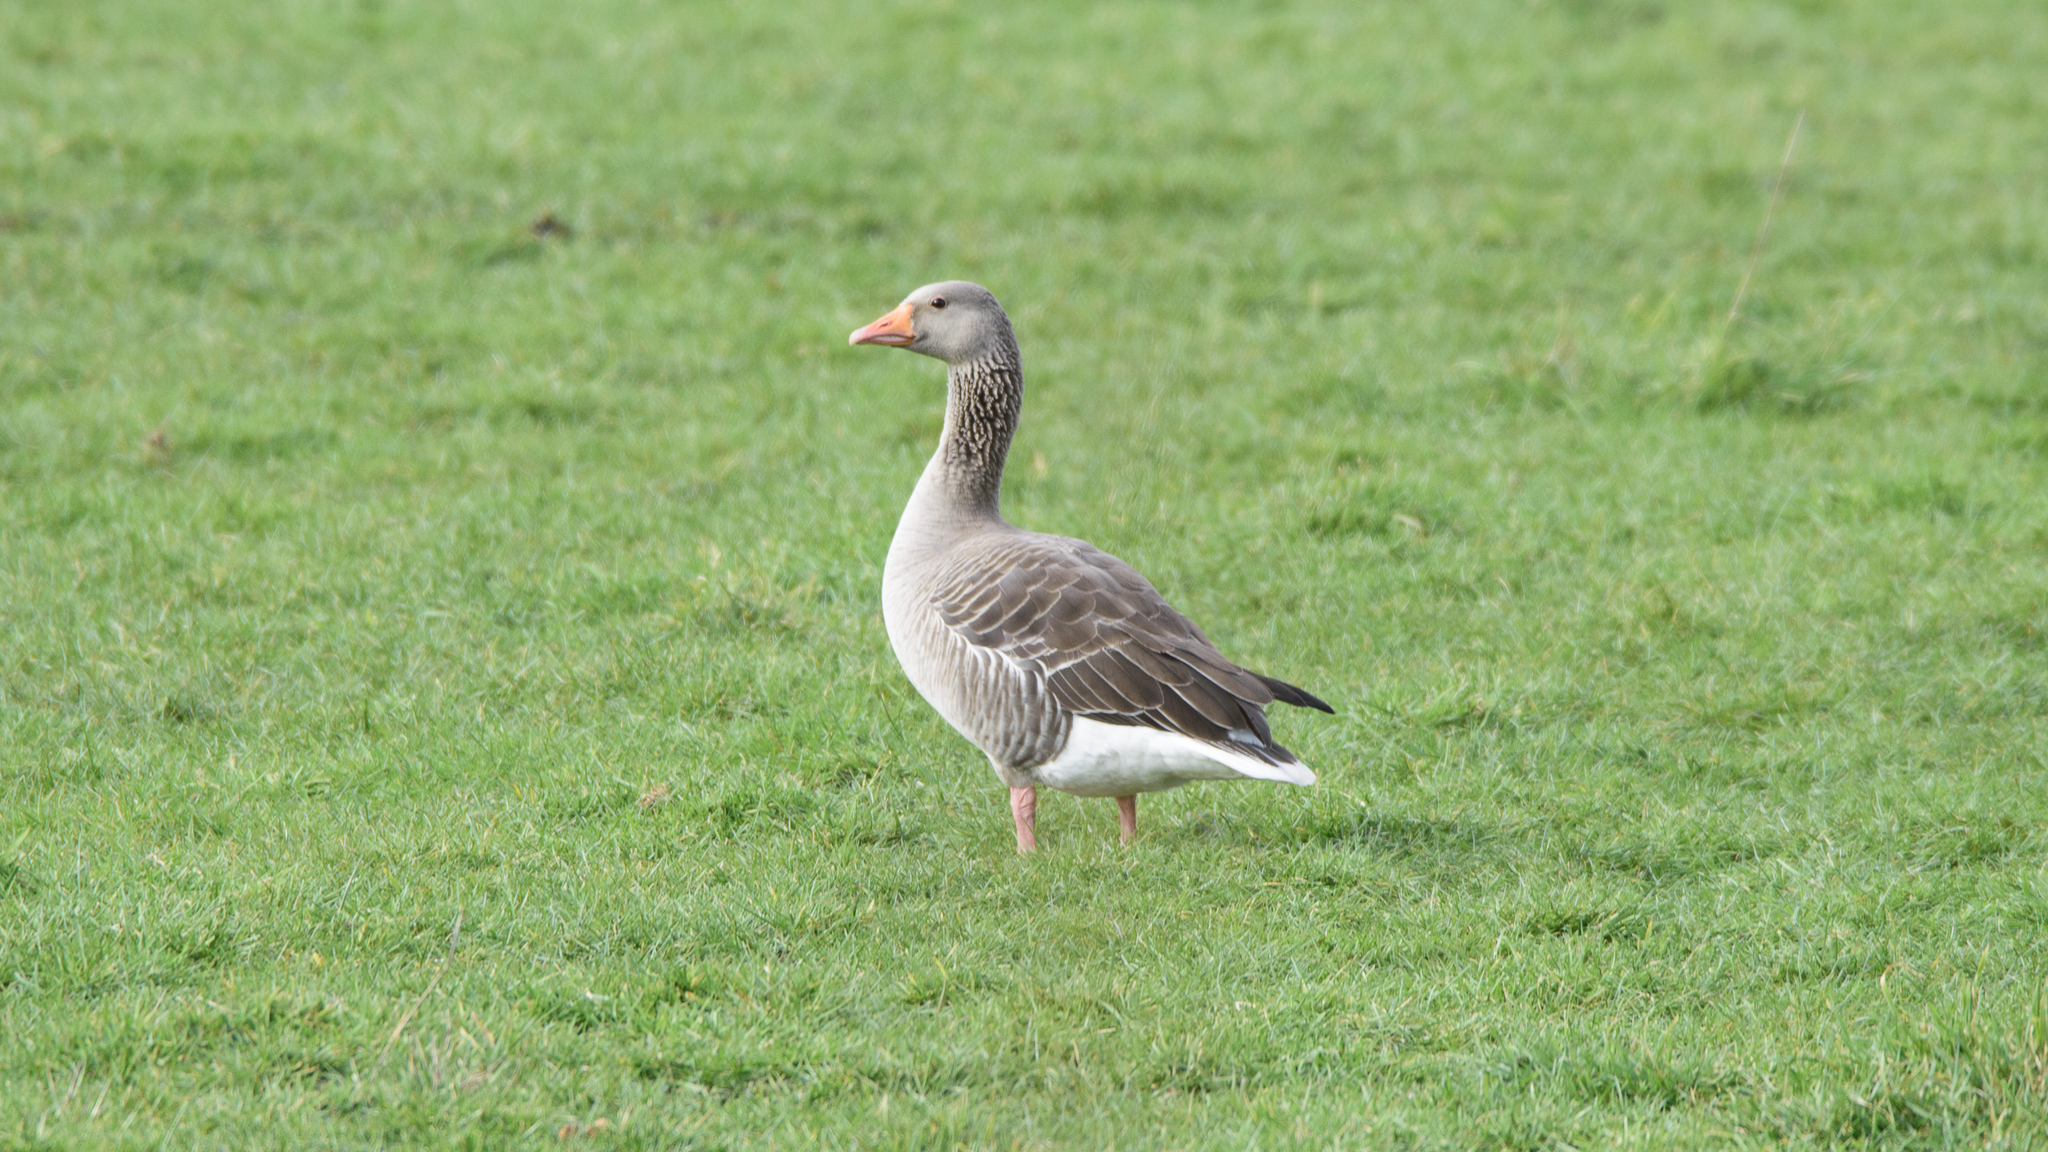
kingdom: Animalia
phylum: Chordata
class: Aves
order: Anseriformes
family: Anatidae
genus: Anser
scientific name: Anser anser
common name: Greylag goose
